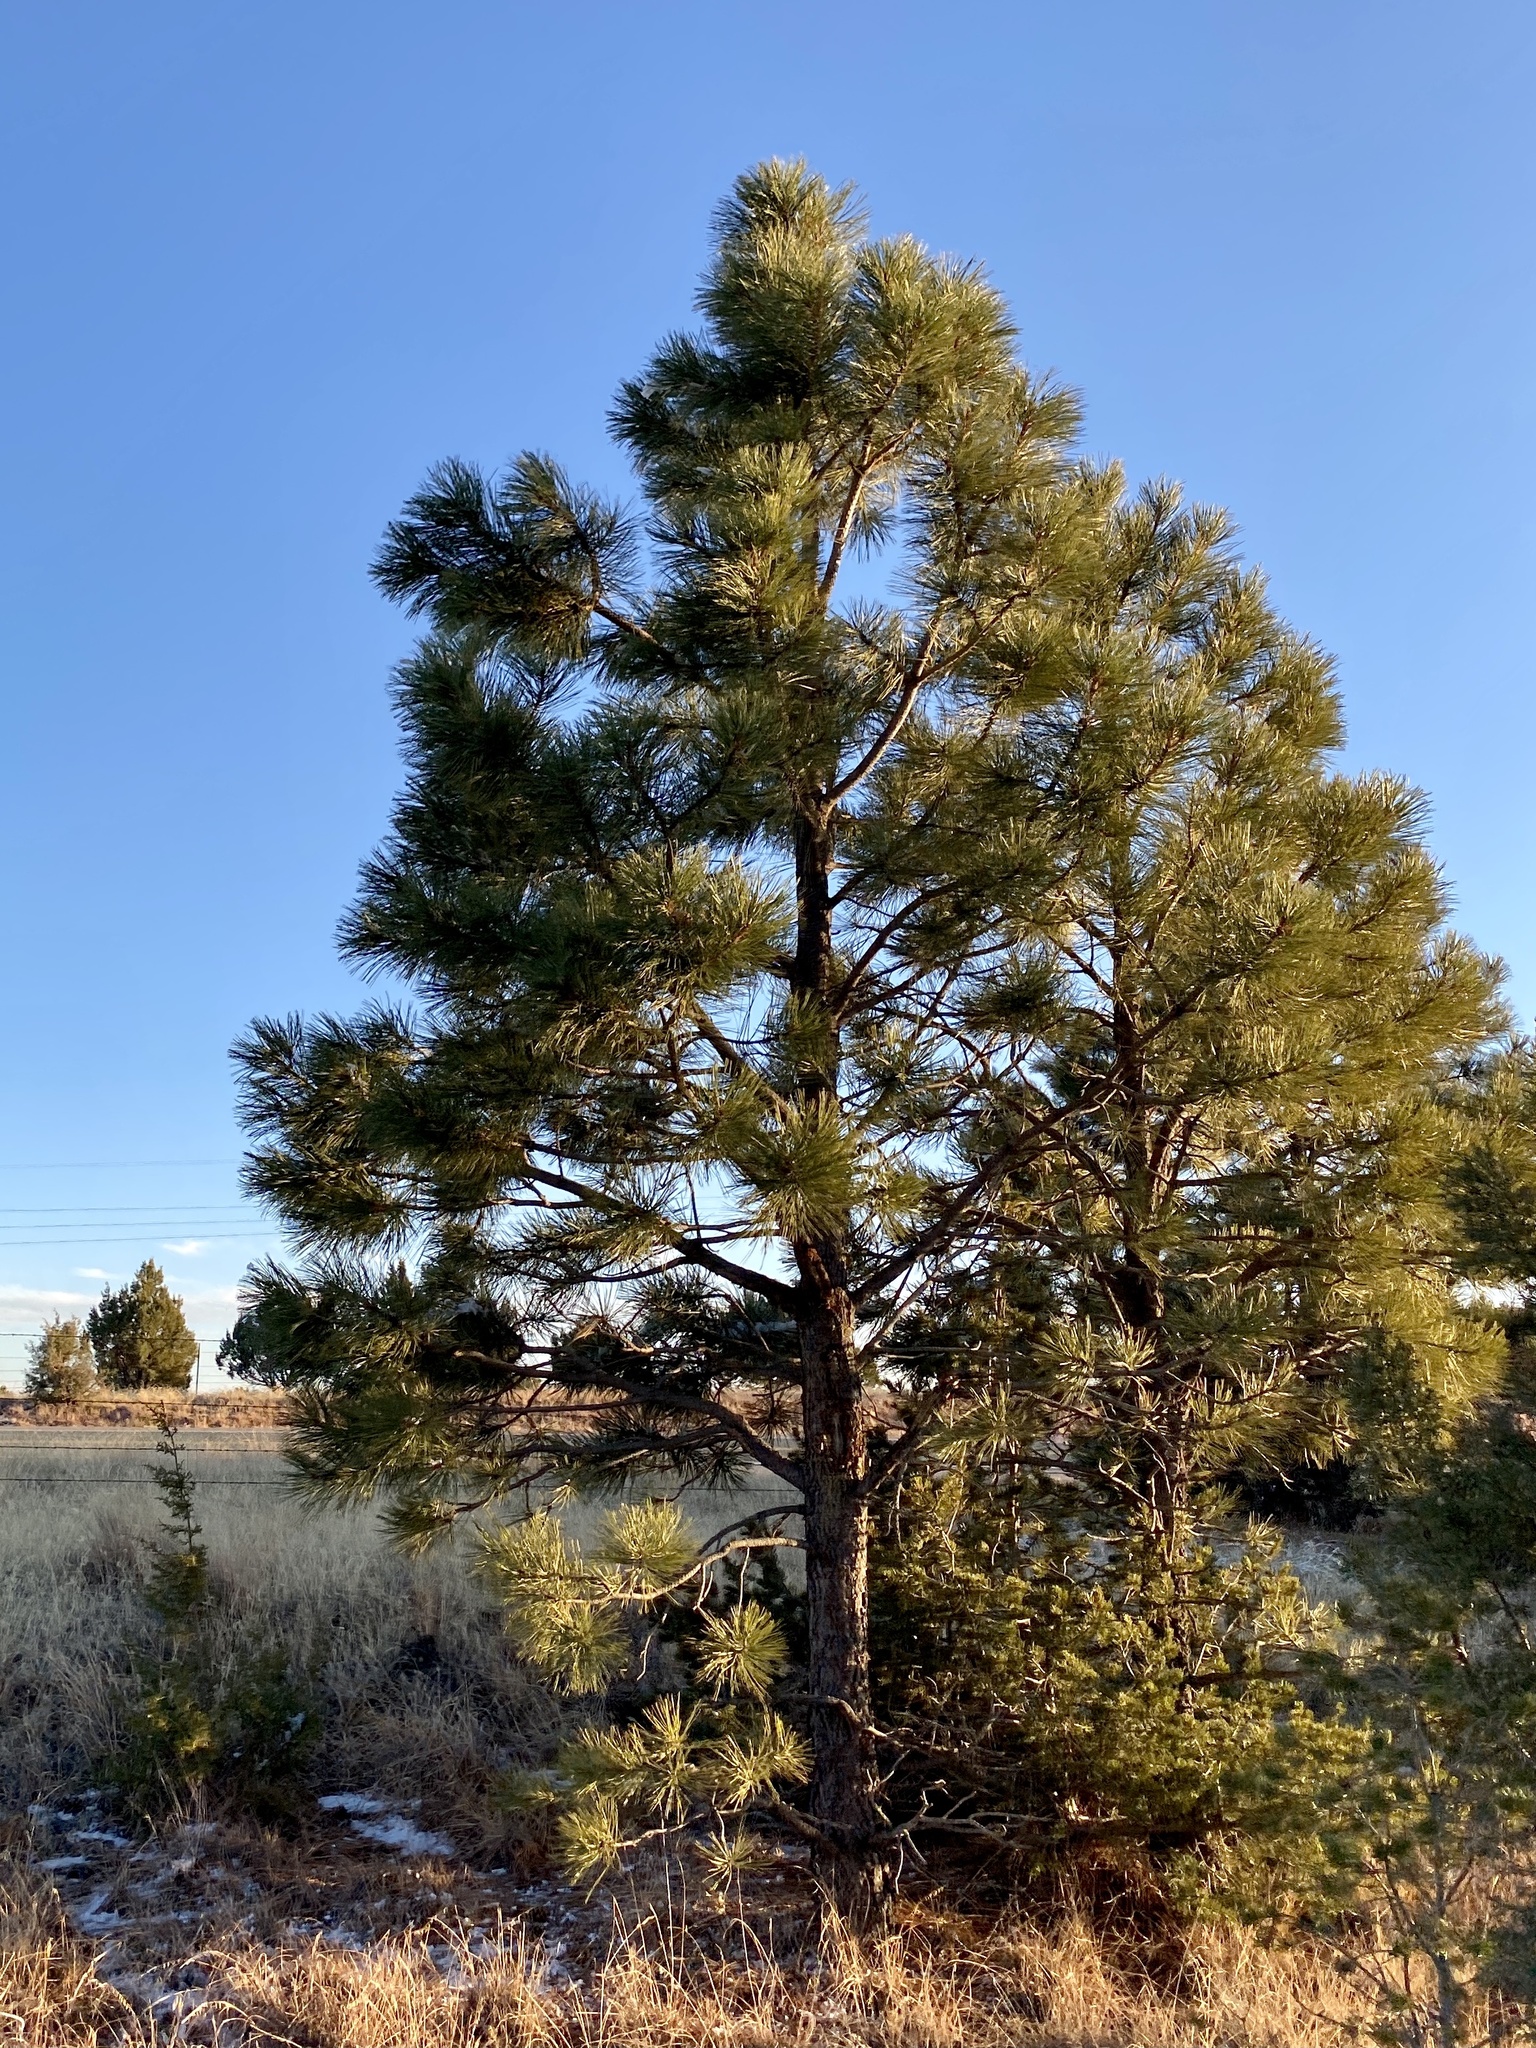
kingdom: Plantae
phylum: Tracheophyta
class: Pinopsida
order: Pinales
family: Pinaceae
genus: Pinus
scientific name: Pinus ponderosa
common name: Western yellow-pine
